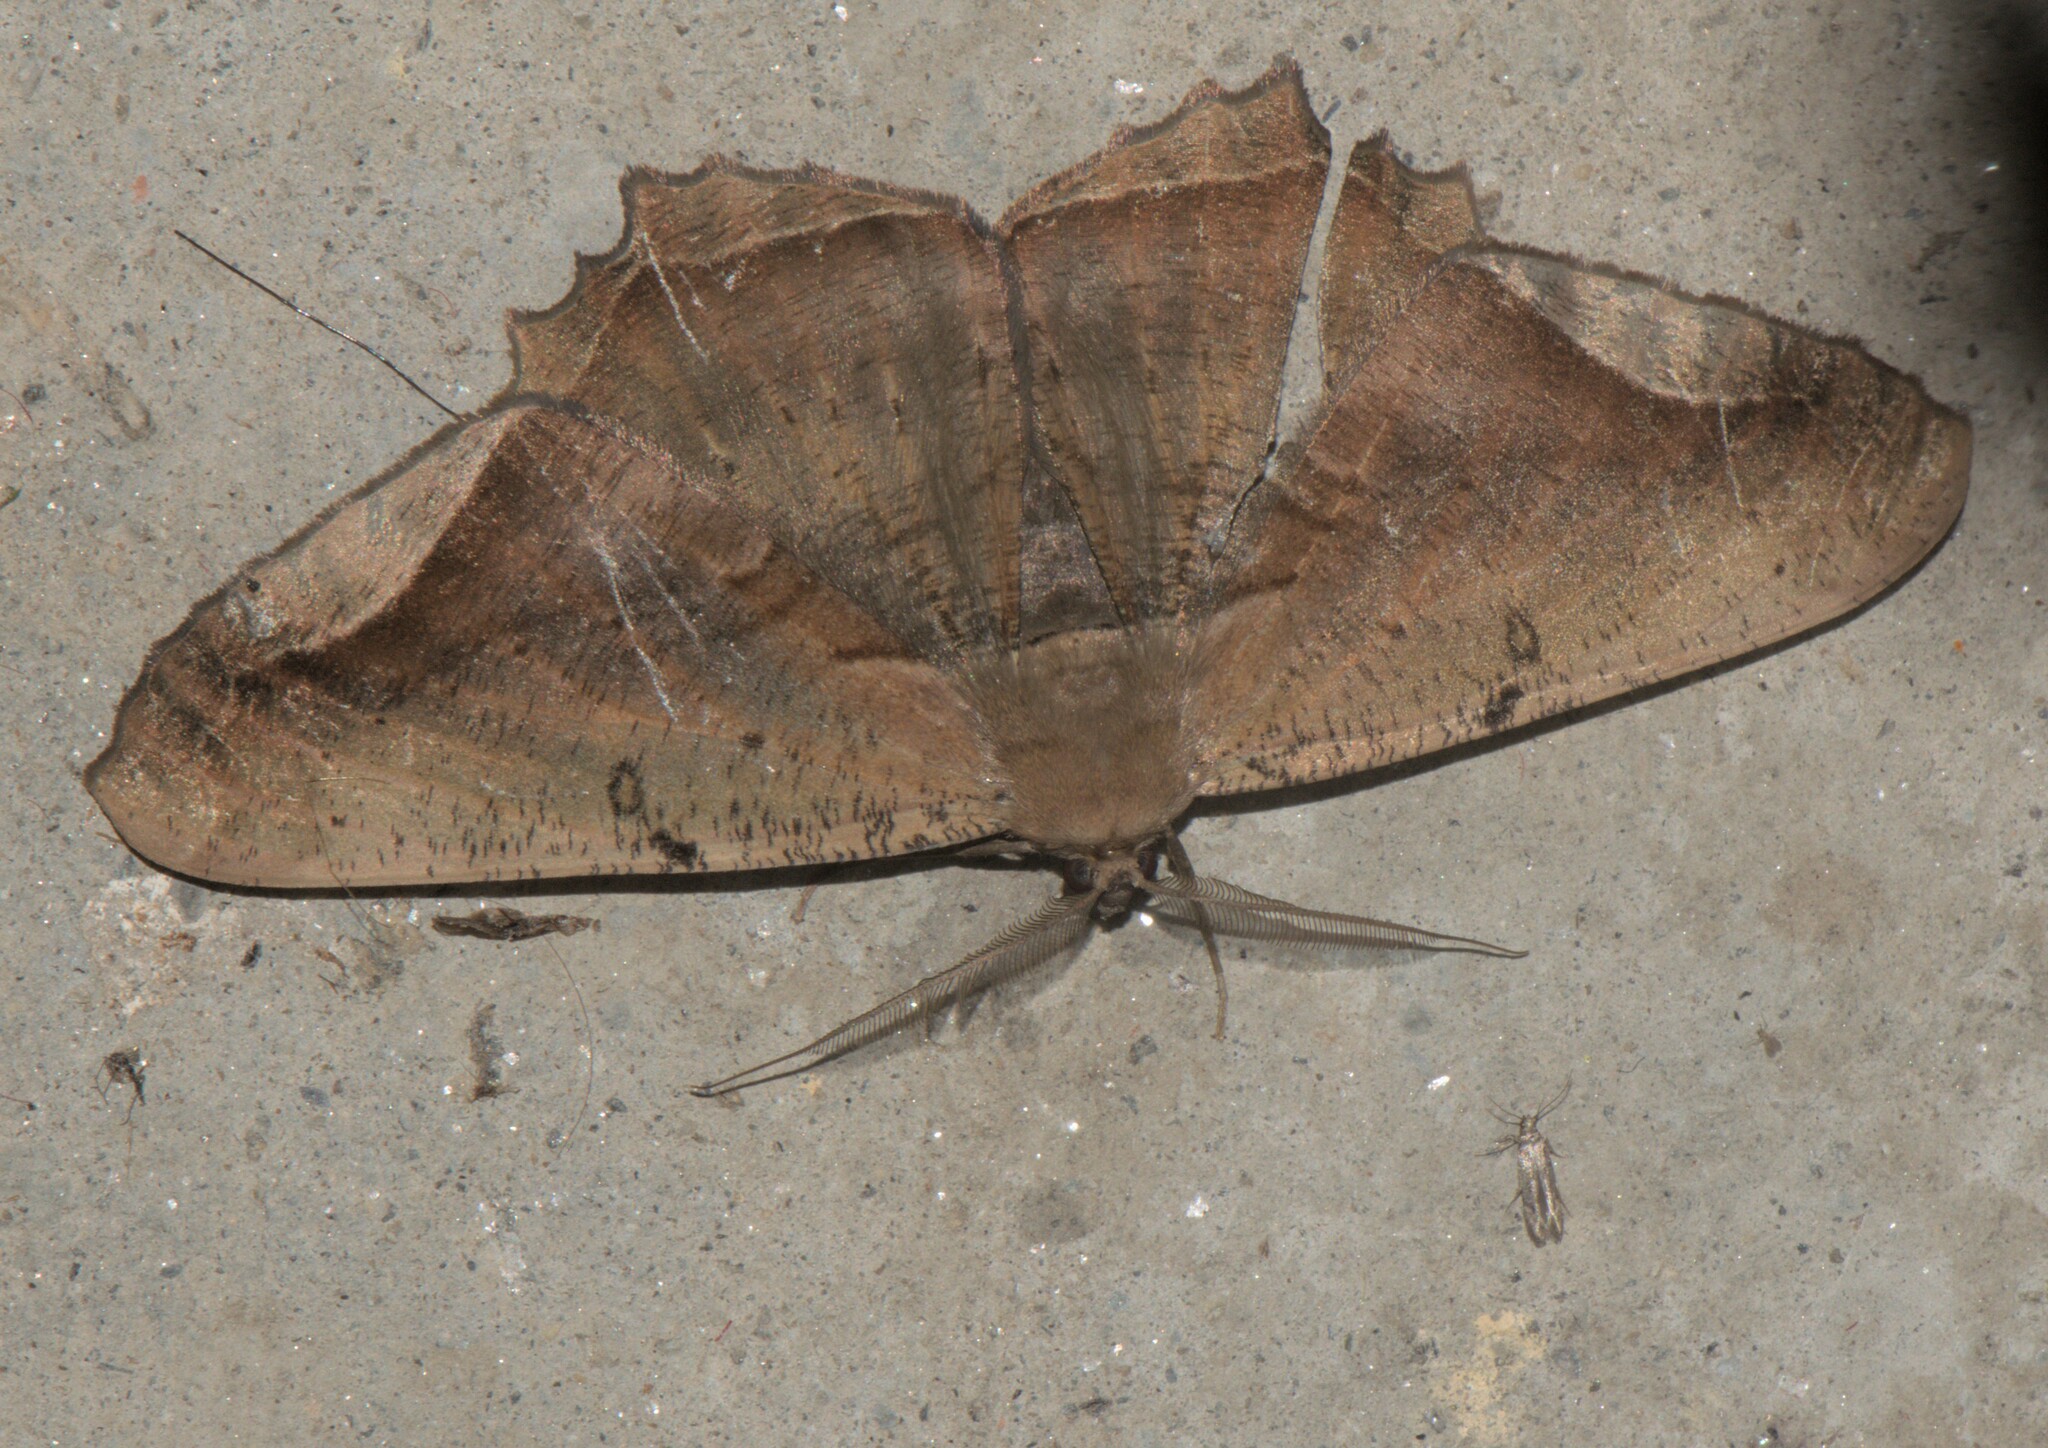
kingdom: Animalia
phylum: Arthropoda
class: Insecta
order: Lepidoptera
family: Geometridae
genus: Chorodna
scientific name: Chorodna adumbrata
